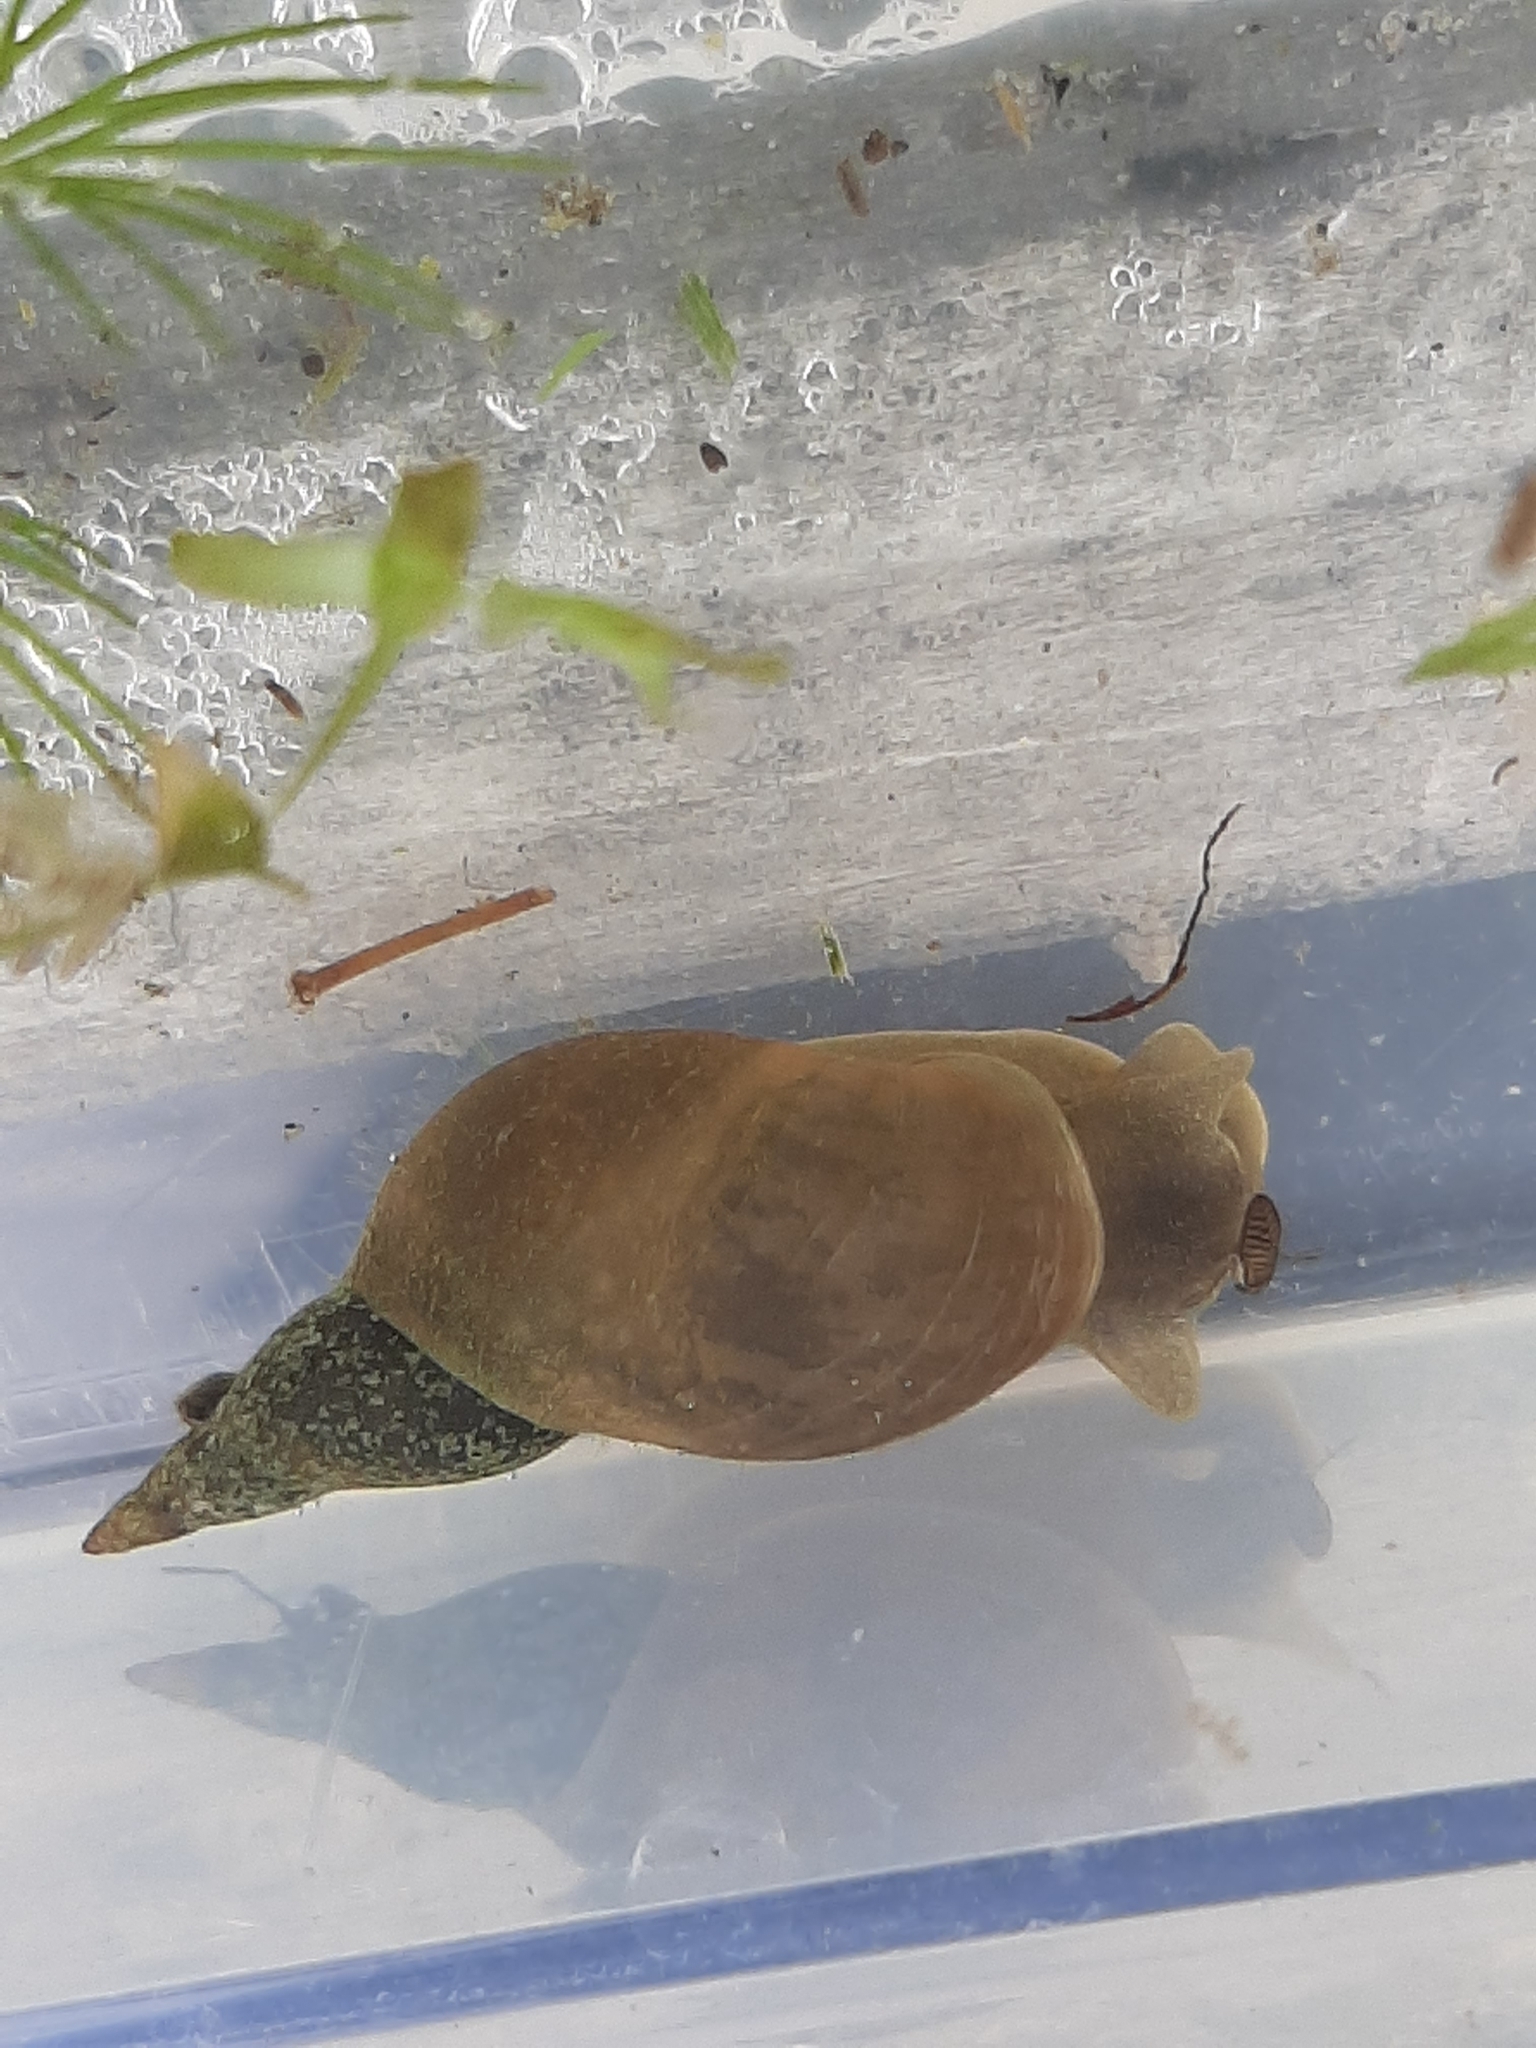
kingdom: Animalia
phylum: Mollusca
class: Gastropoda
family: Lymnaeidae
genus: Lymnaea
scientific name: Lymnaea stagnalis
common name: Great pond snail
